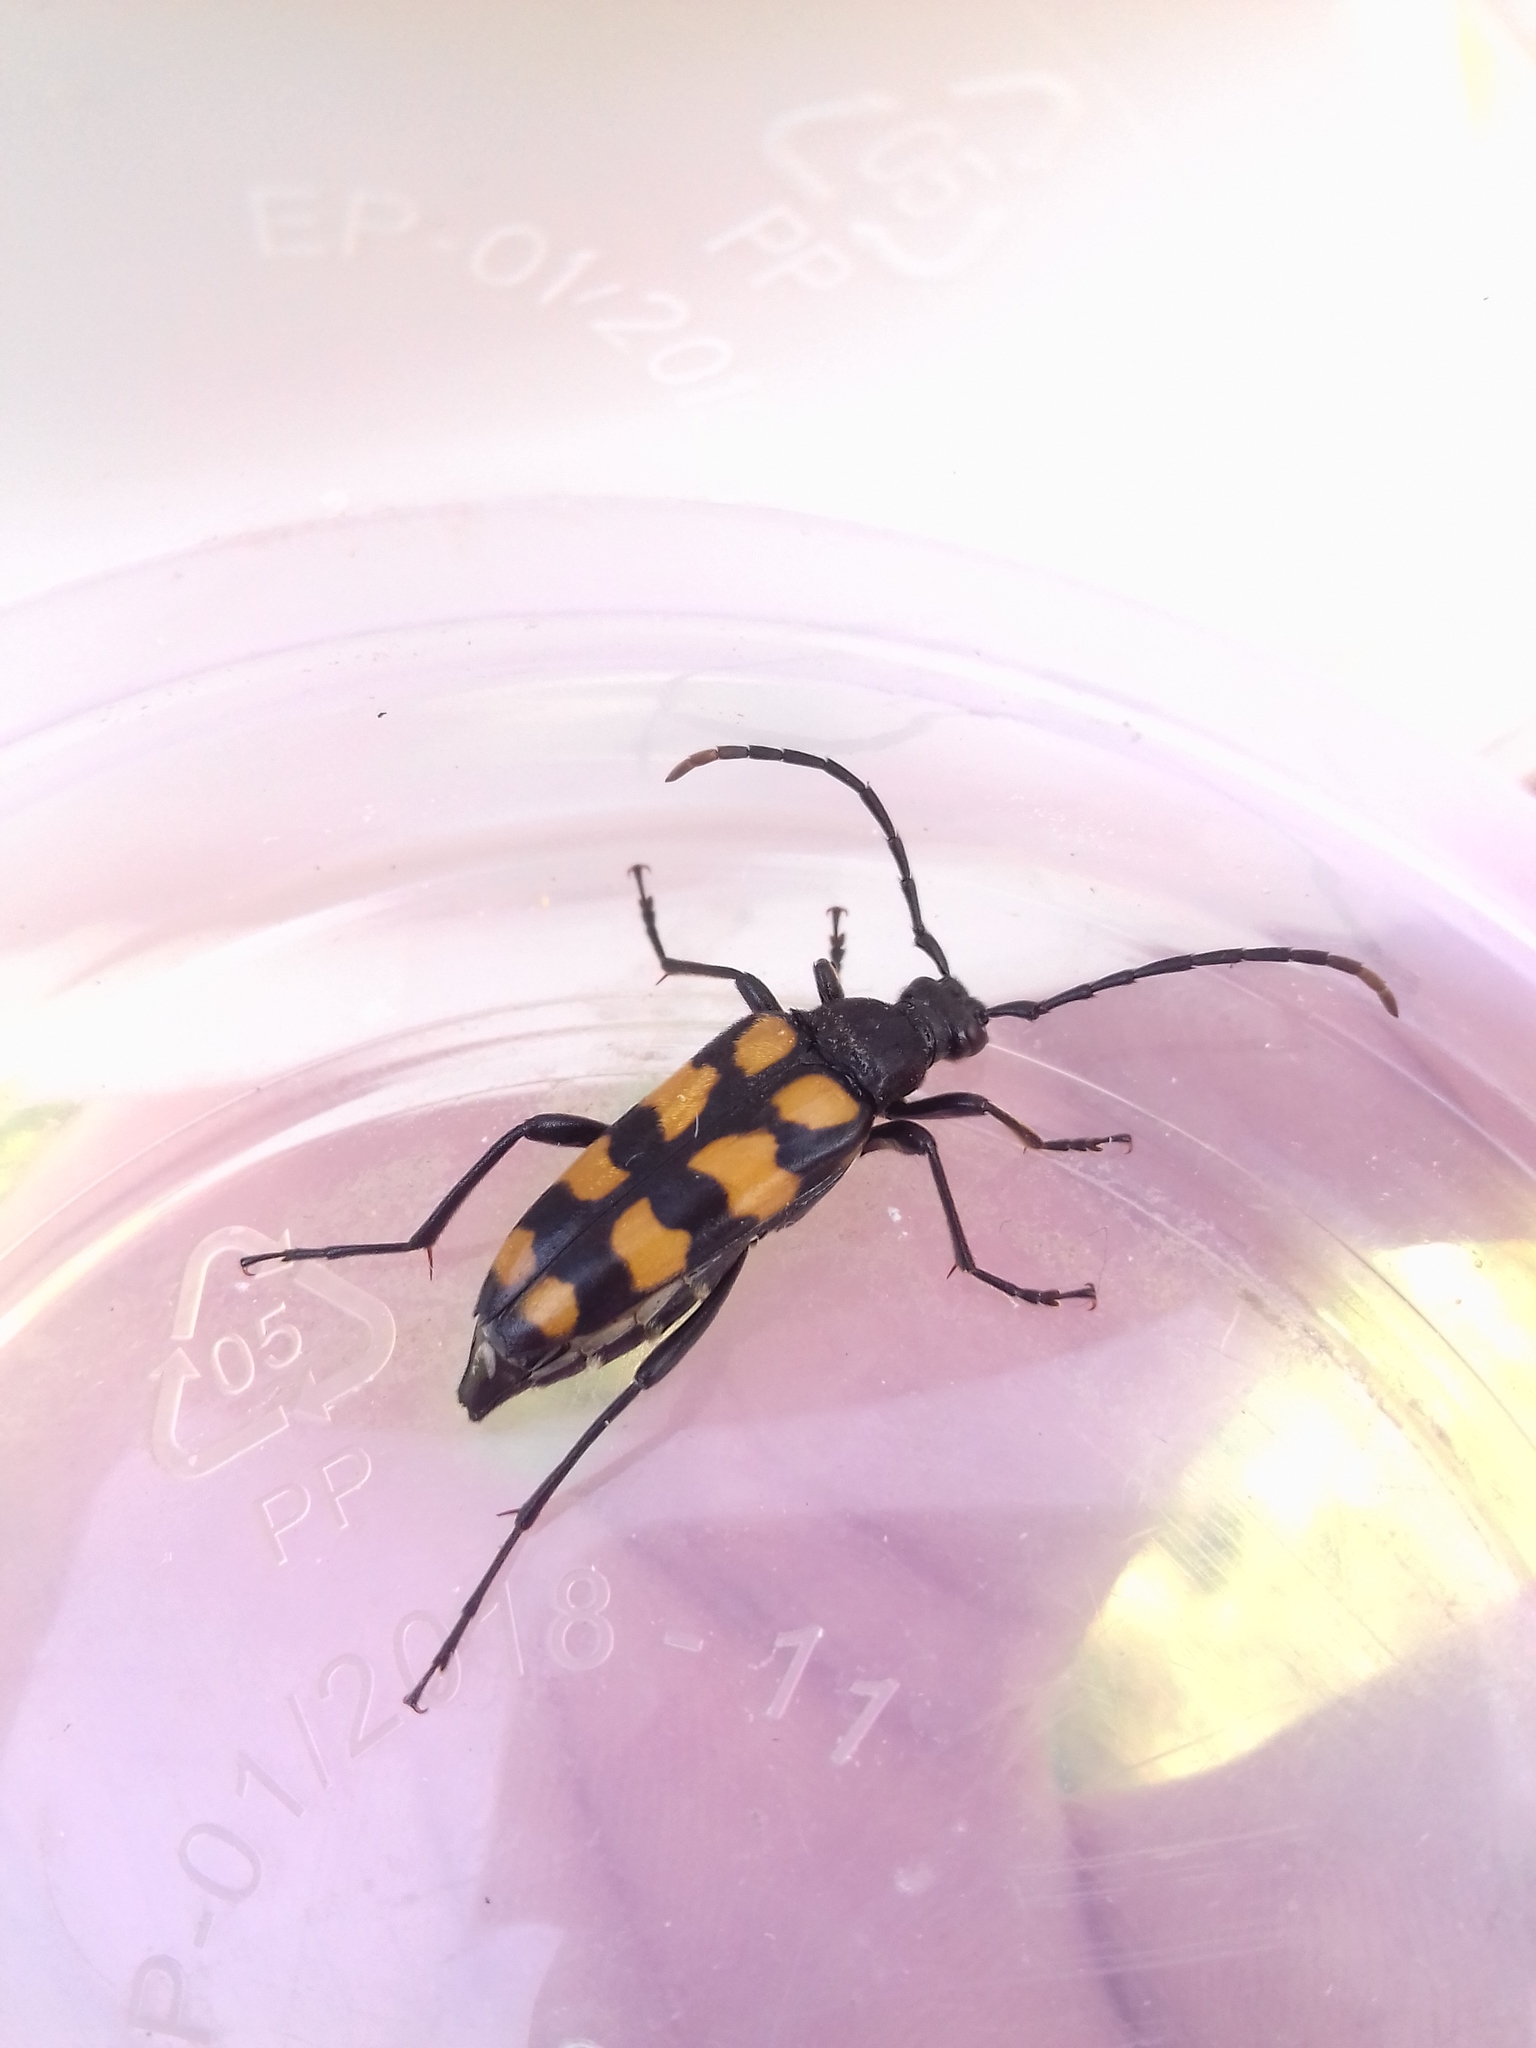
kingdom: Animalia
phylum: Arthropoda
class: Insecta
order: Coleoptera
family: Cerambycidae
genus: Leptura
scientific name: Leptura quadrifasciata
